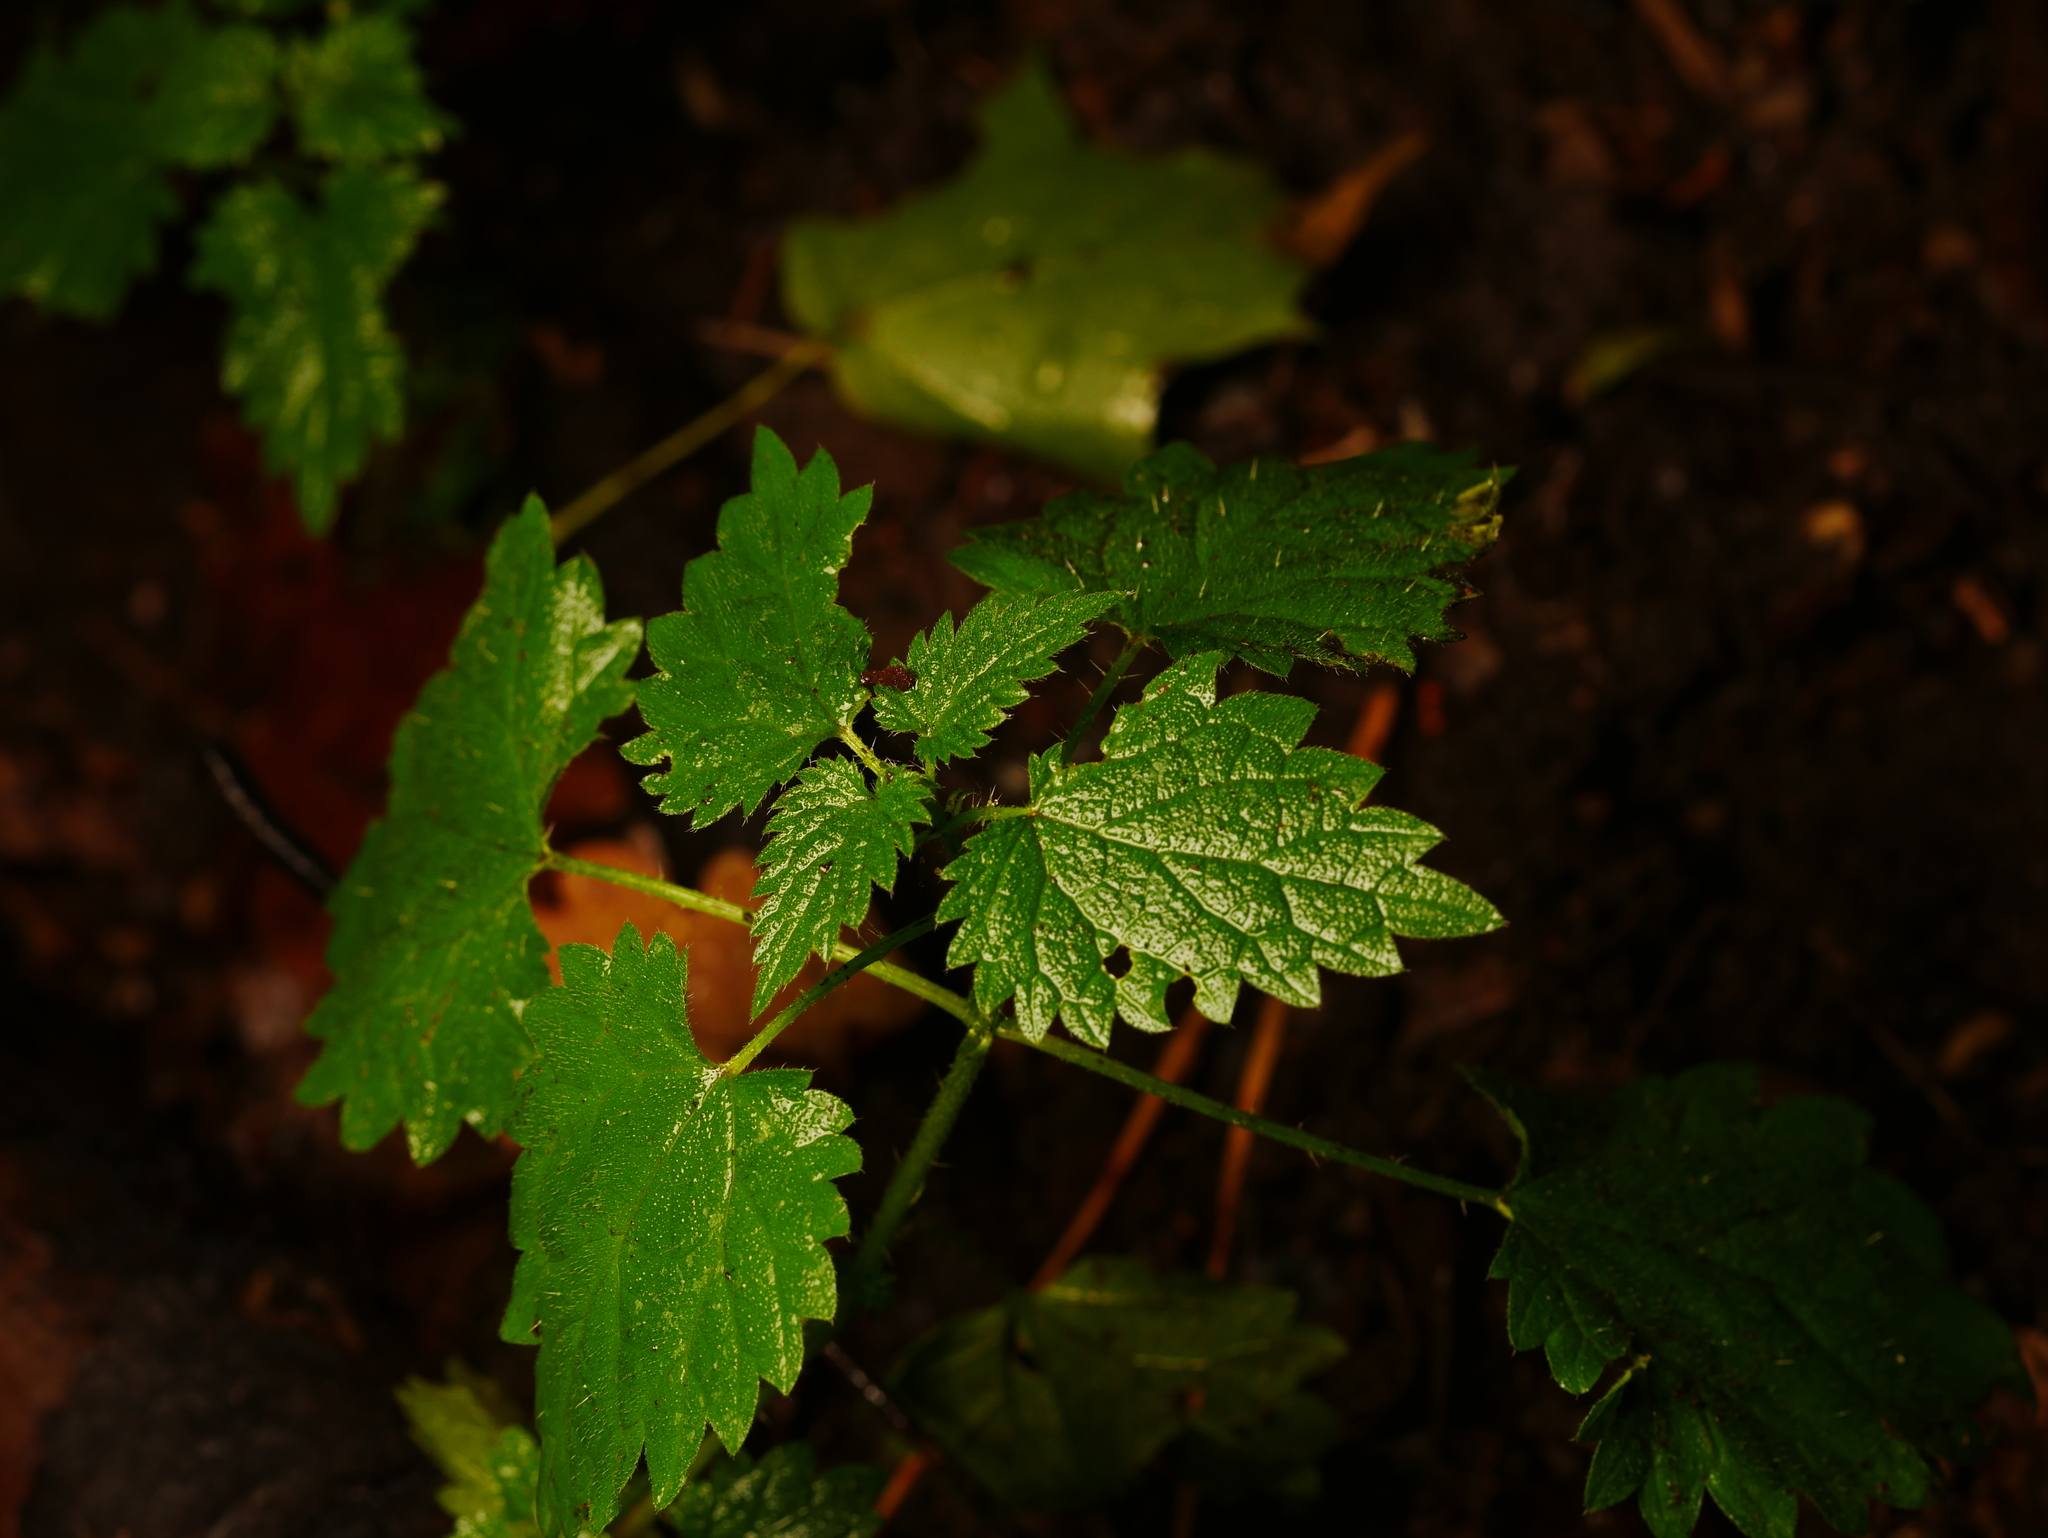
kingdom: Plantae
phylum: Tracheophyta
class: Magnoliopsida
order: Rosales
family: Urticaceae
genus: Urtica
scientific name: Urtica dioica
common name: Common nettle
